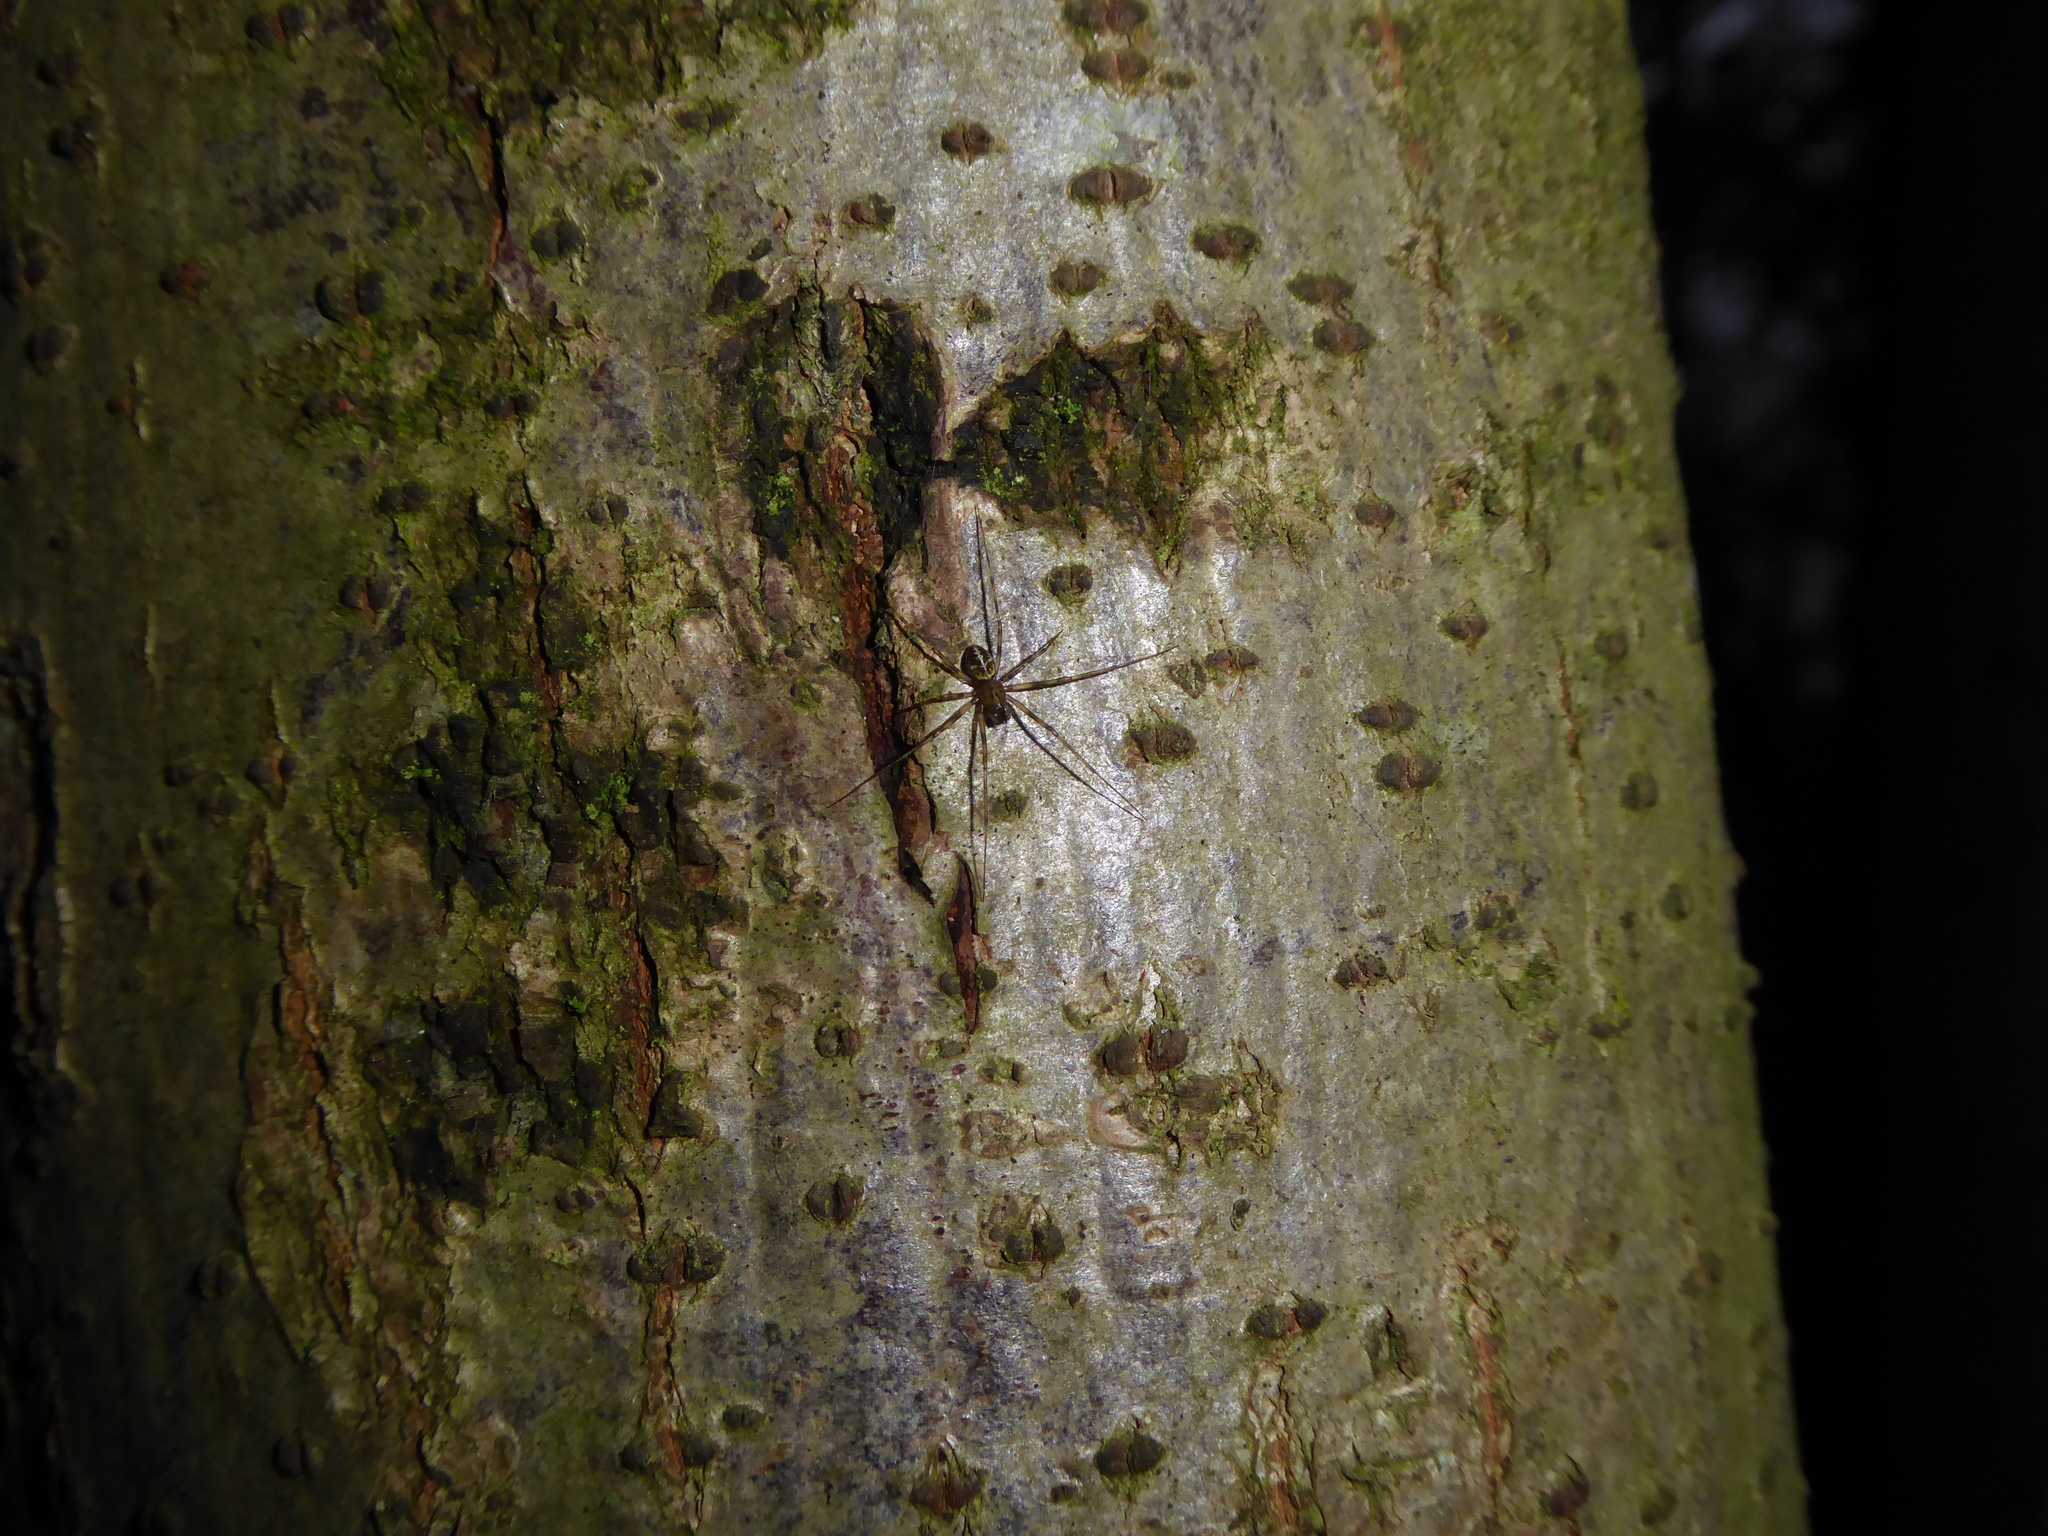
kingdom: Animalia
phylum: Arthropoda
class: Arachnida
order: Araneae
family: Linyphiidae
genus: Drapetisca
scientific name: Drapetisca socialis
